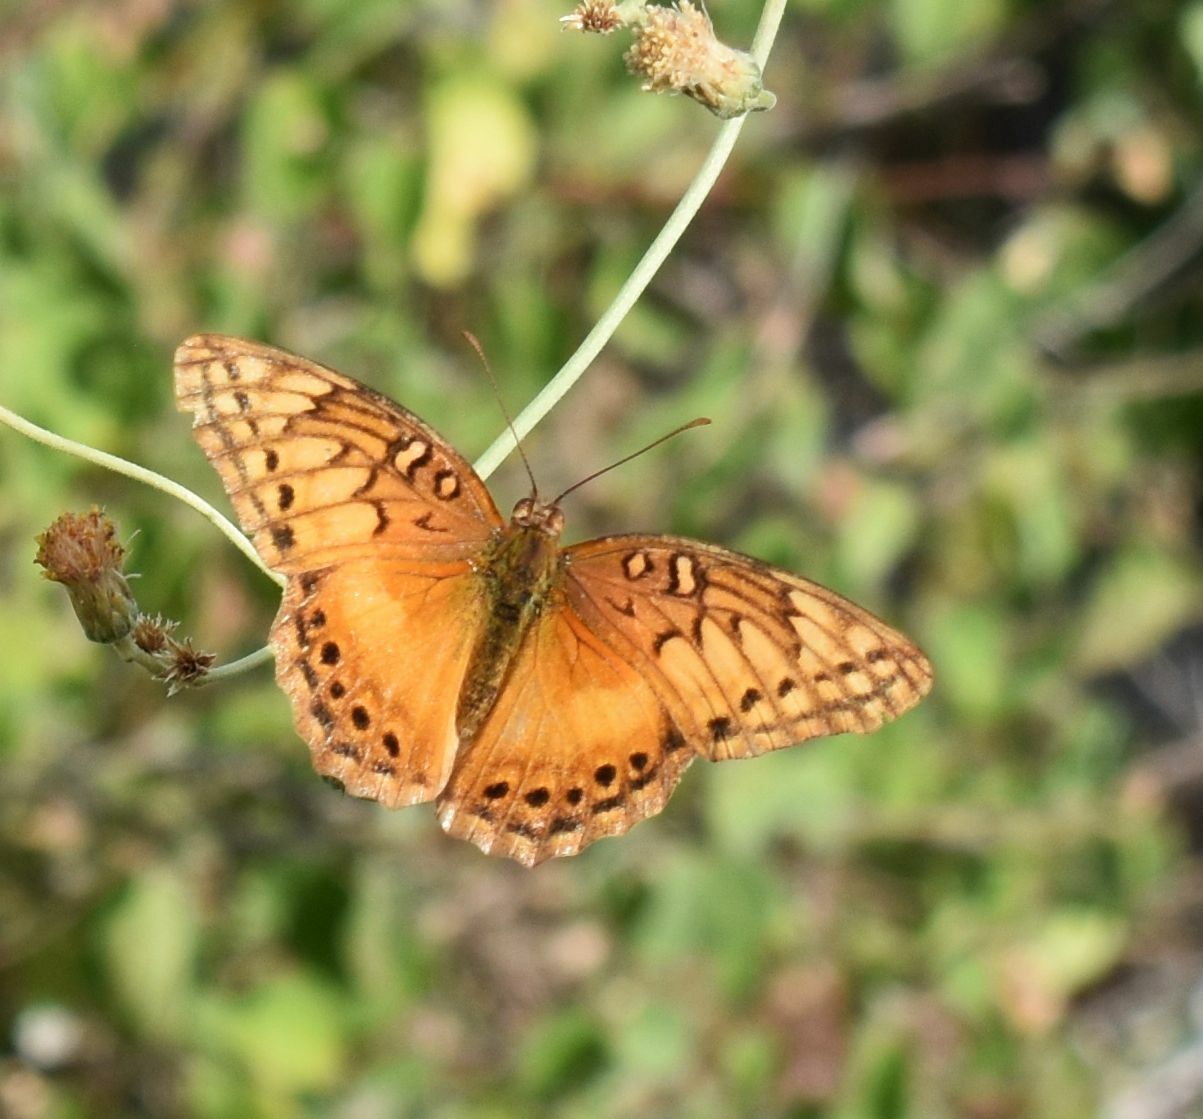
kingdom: Animalia
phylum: Arthropoda
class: Insecta
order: Lepidoptera
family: Nymphalidae
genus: Euptoieta
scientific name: Euptoieta hegesia
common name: Mexican fritillary
